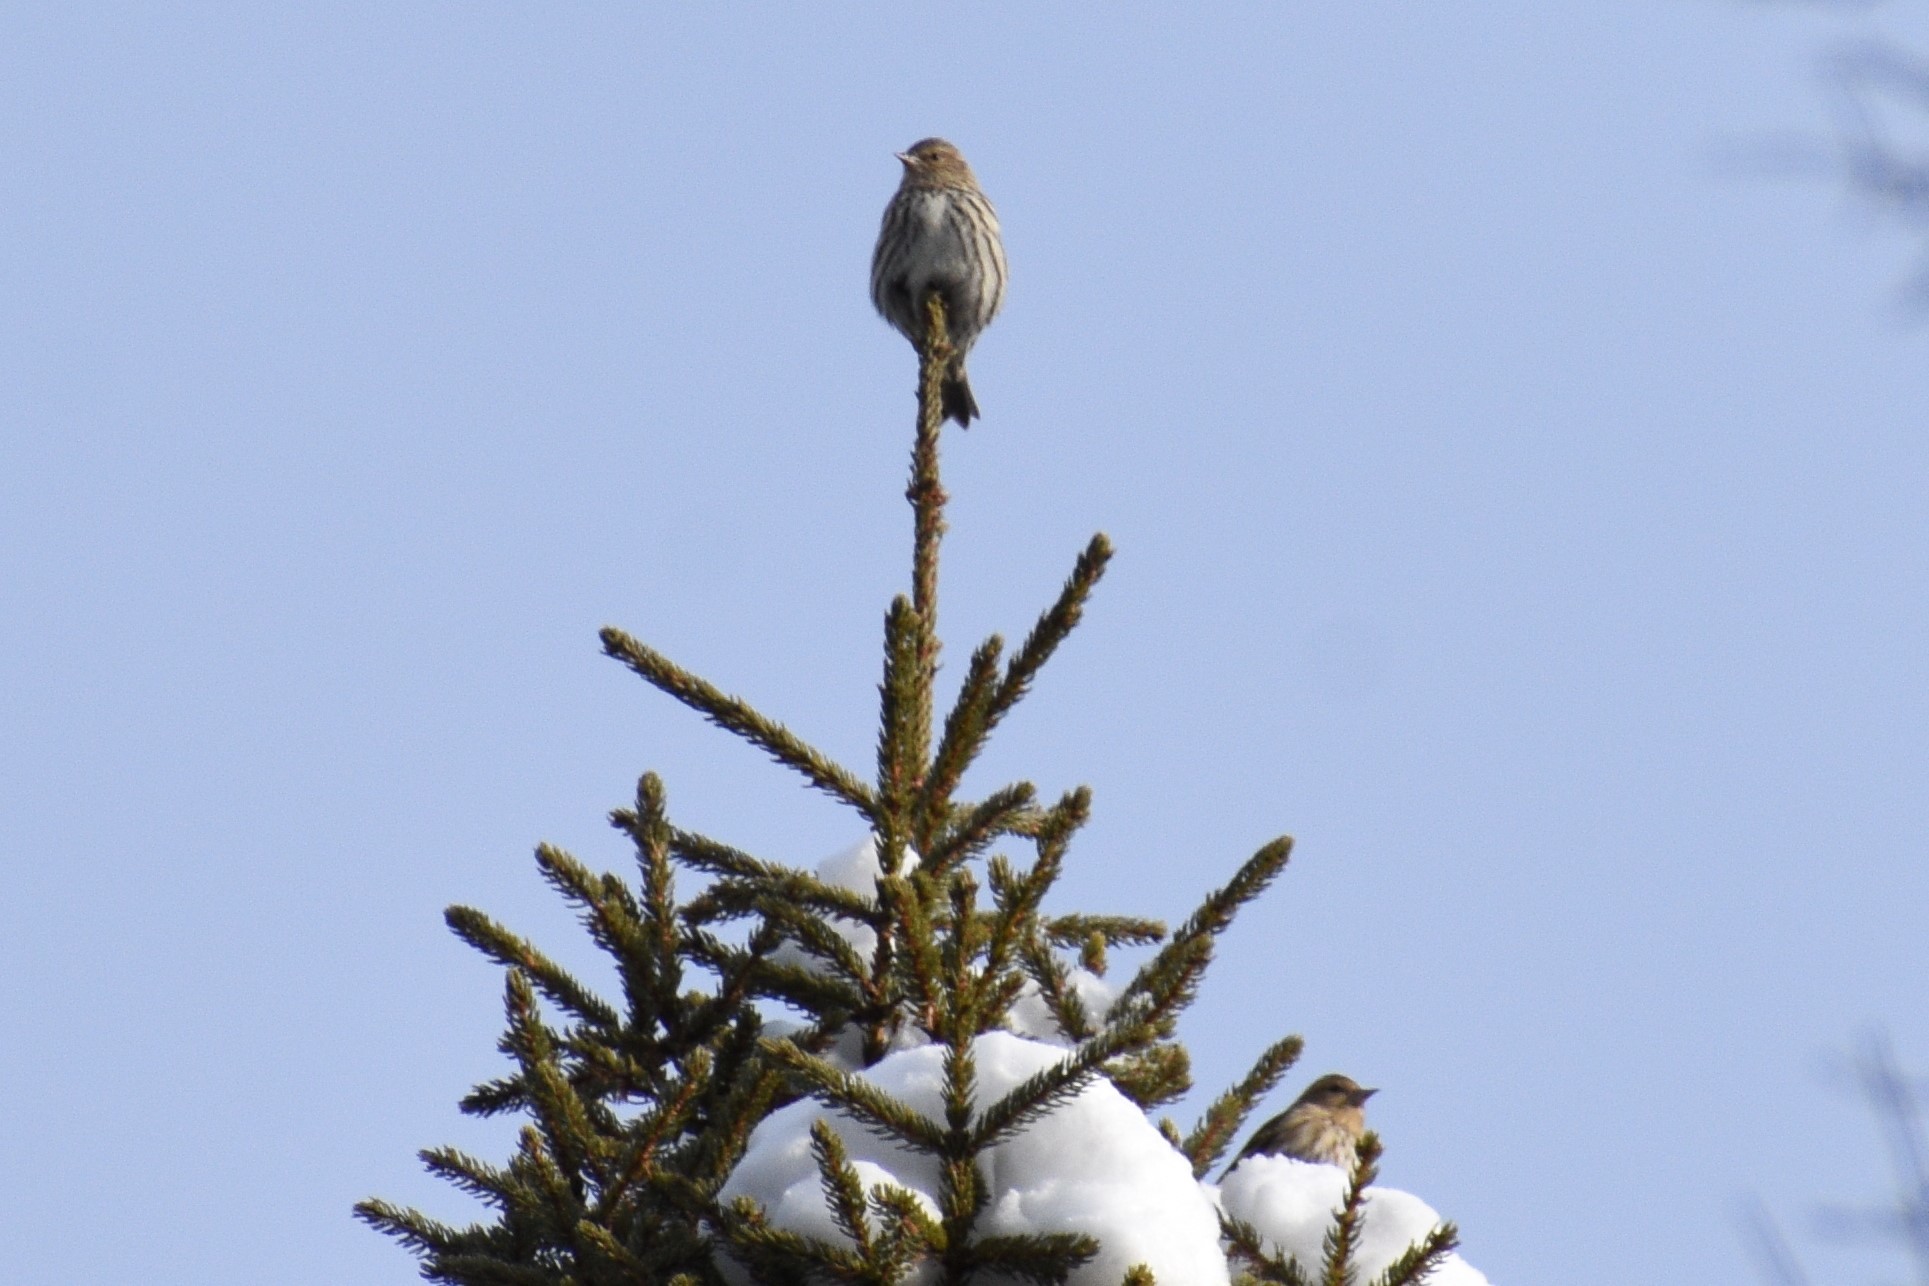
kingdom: Animalia
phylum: Chordata
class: Aves
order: Passeriformes
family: Fringillidae
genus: Spinus
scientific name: Spinus pinus
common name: Pine siskin
